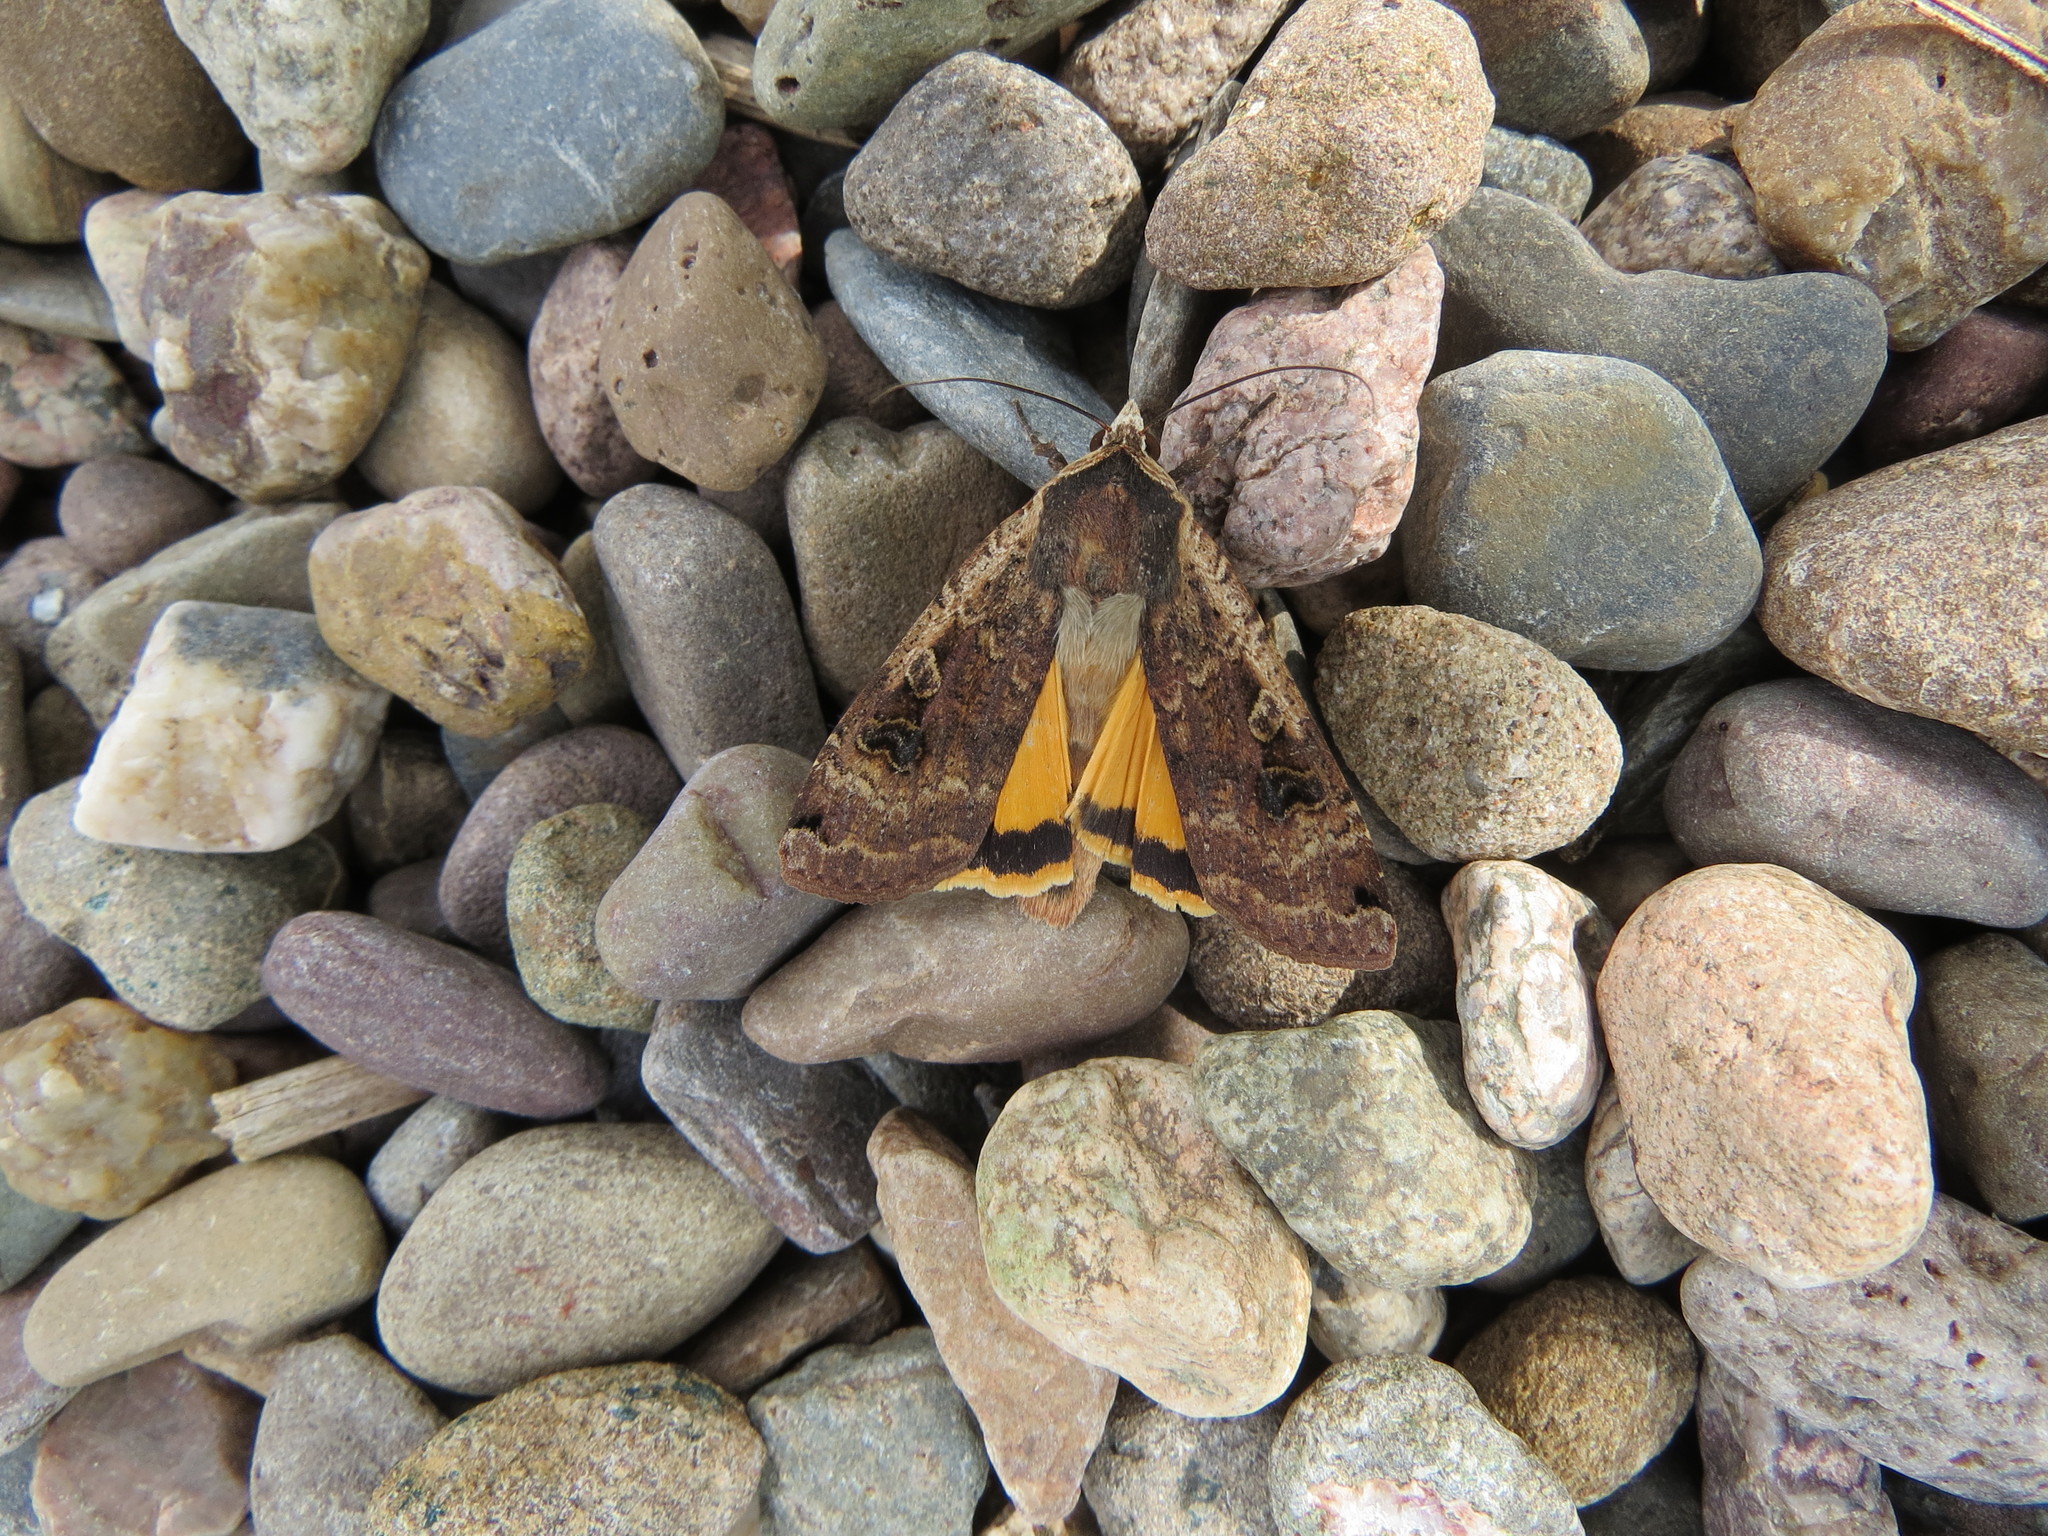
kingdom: Animalia
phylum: Arthropoda
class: Insecta
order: Lepidoptera
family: Noctuidae
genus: Noctua
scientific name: Noctua pronuba
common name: Large yellow underwing
